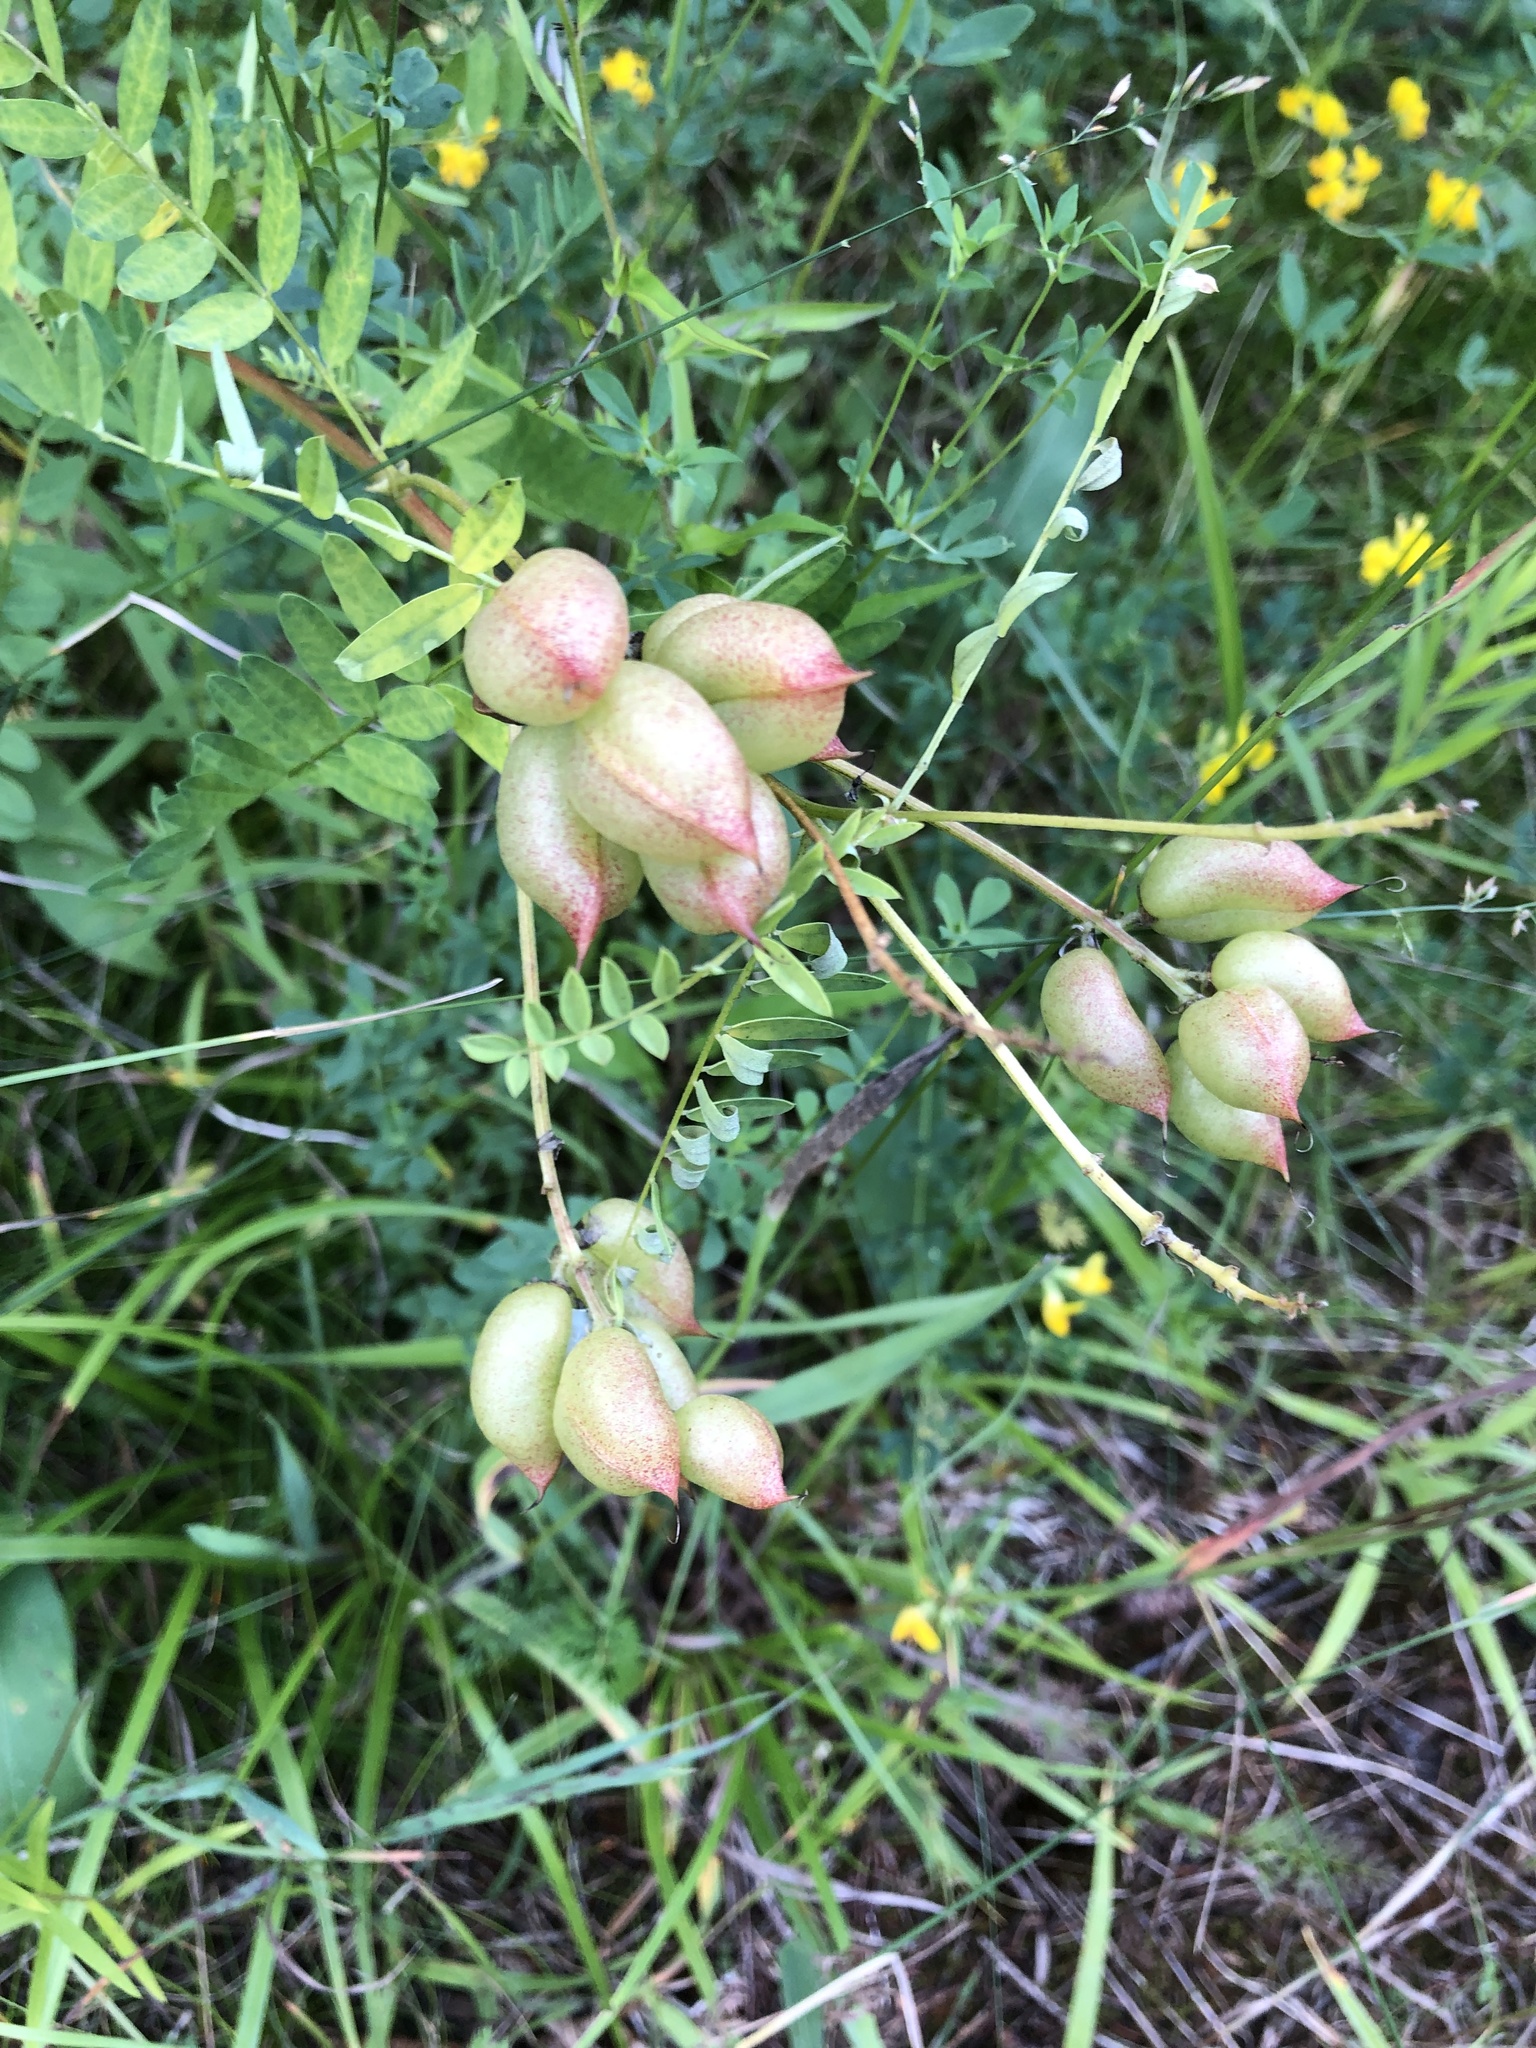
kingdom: Plantae
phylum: Tracheophyta
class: Magnoliopsida
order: Fabales
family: Fabaceae
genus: Astragalus
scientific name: Astragalus neglectus
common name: Cooper's milk-vetch
